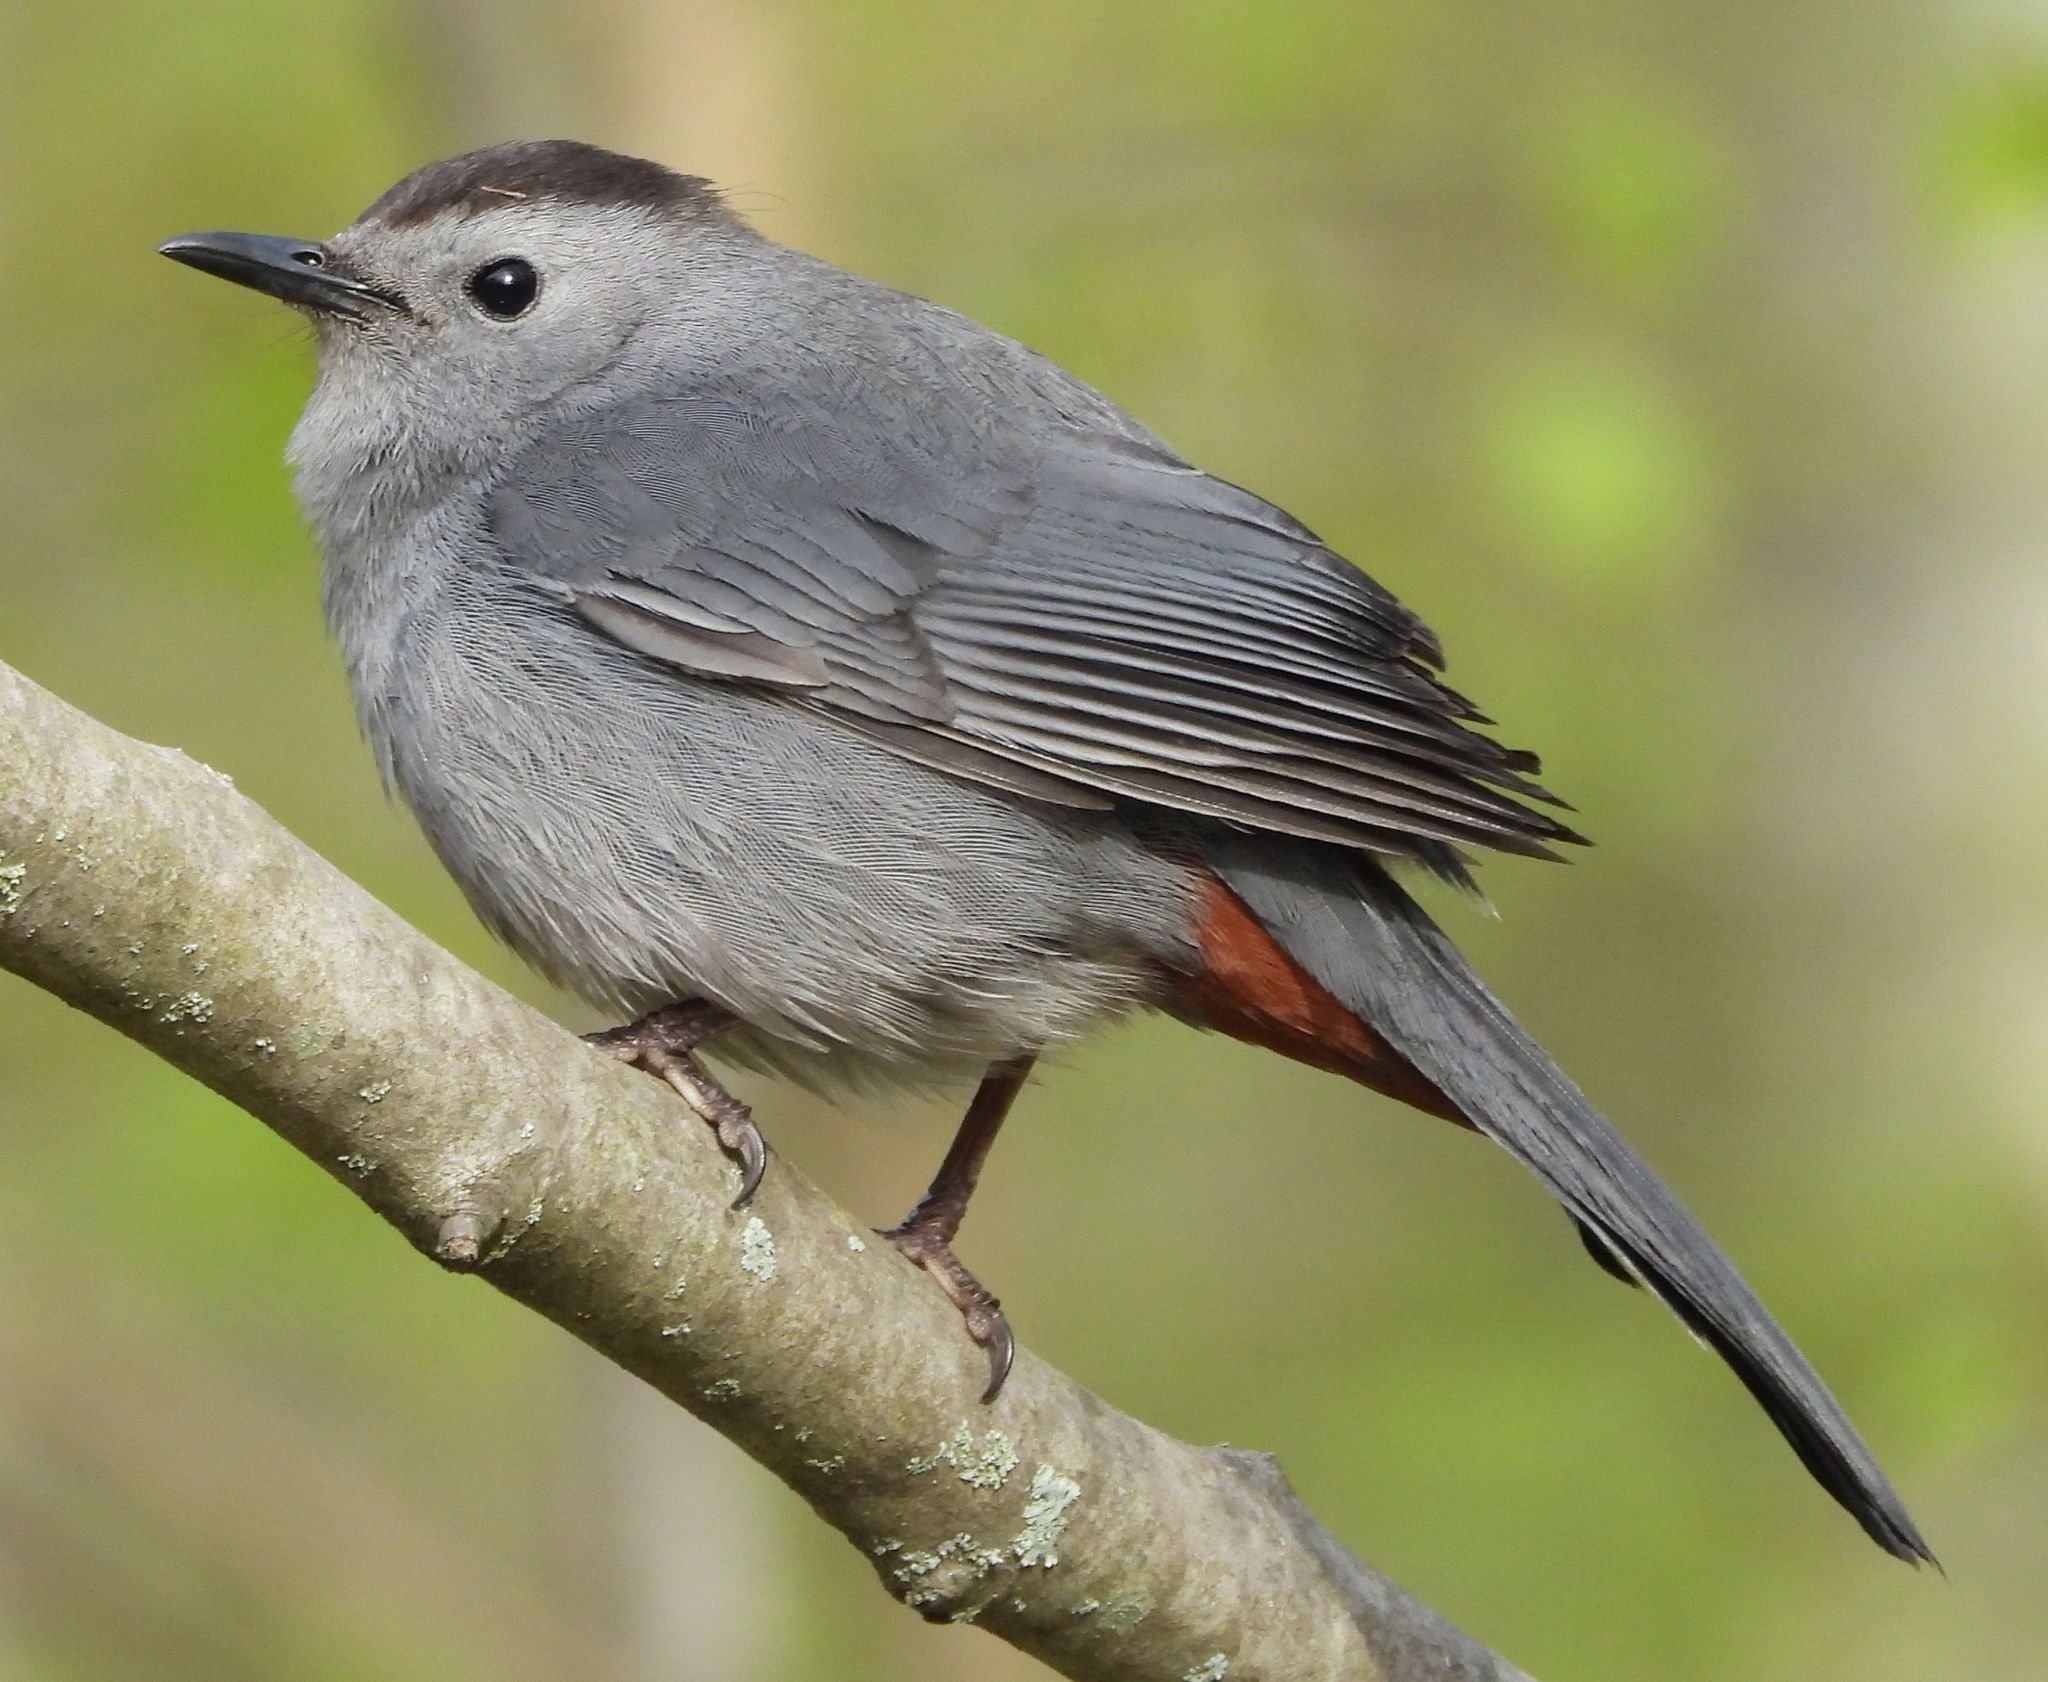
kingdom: Animalia
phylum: Chordata
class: Aves
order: Passeriformes
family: Mimidae
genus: Dumetella
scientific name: Dumetella carolinensis
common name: Gray catbird
